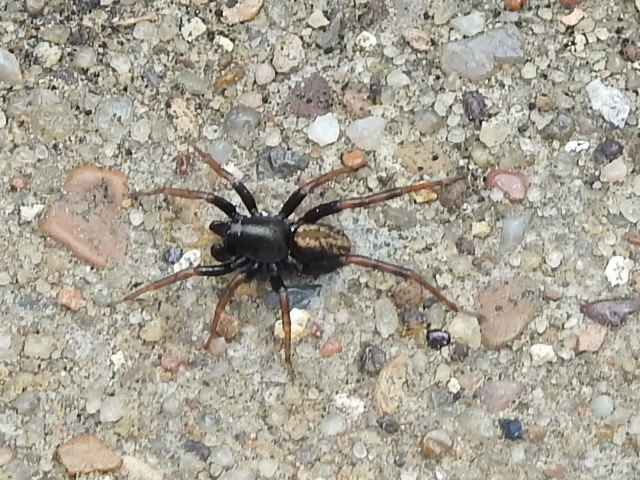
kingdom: Animalia
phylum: Arthropoda
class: Arachnida
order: Araneae
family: Lycosidae
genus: Allocosa
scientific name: Allocosa funerea
